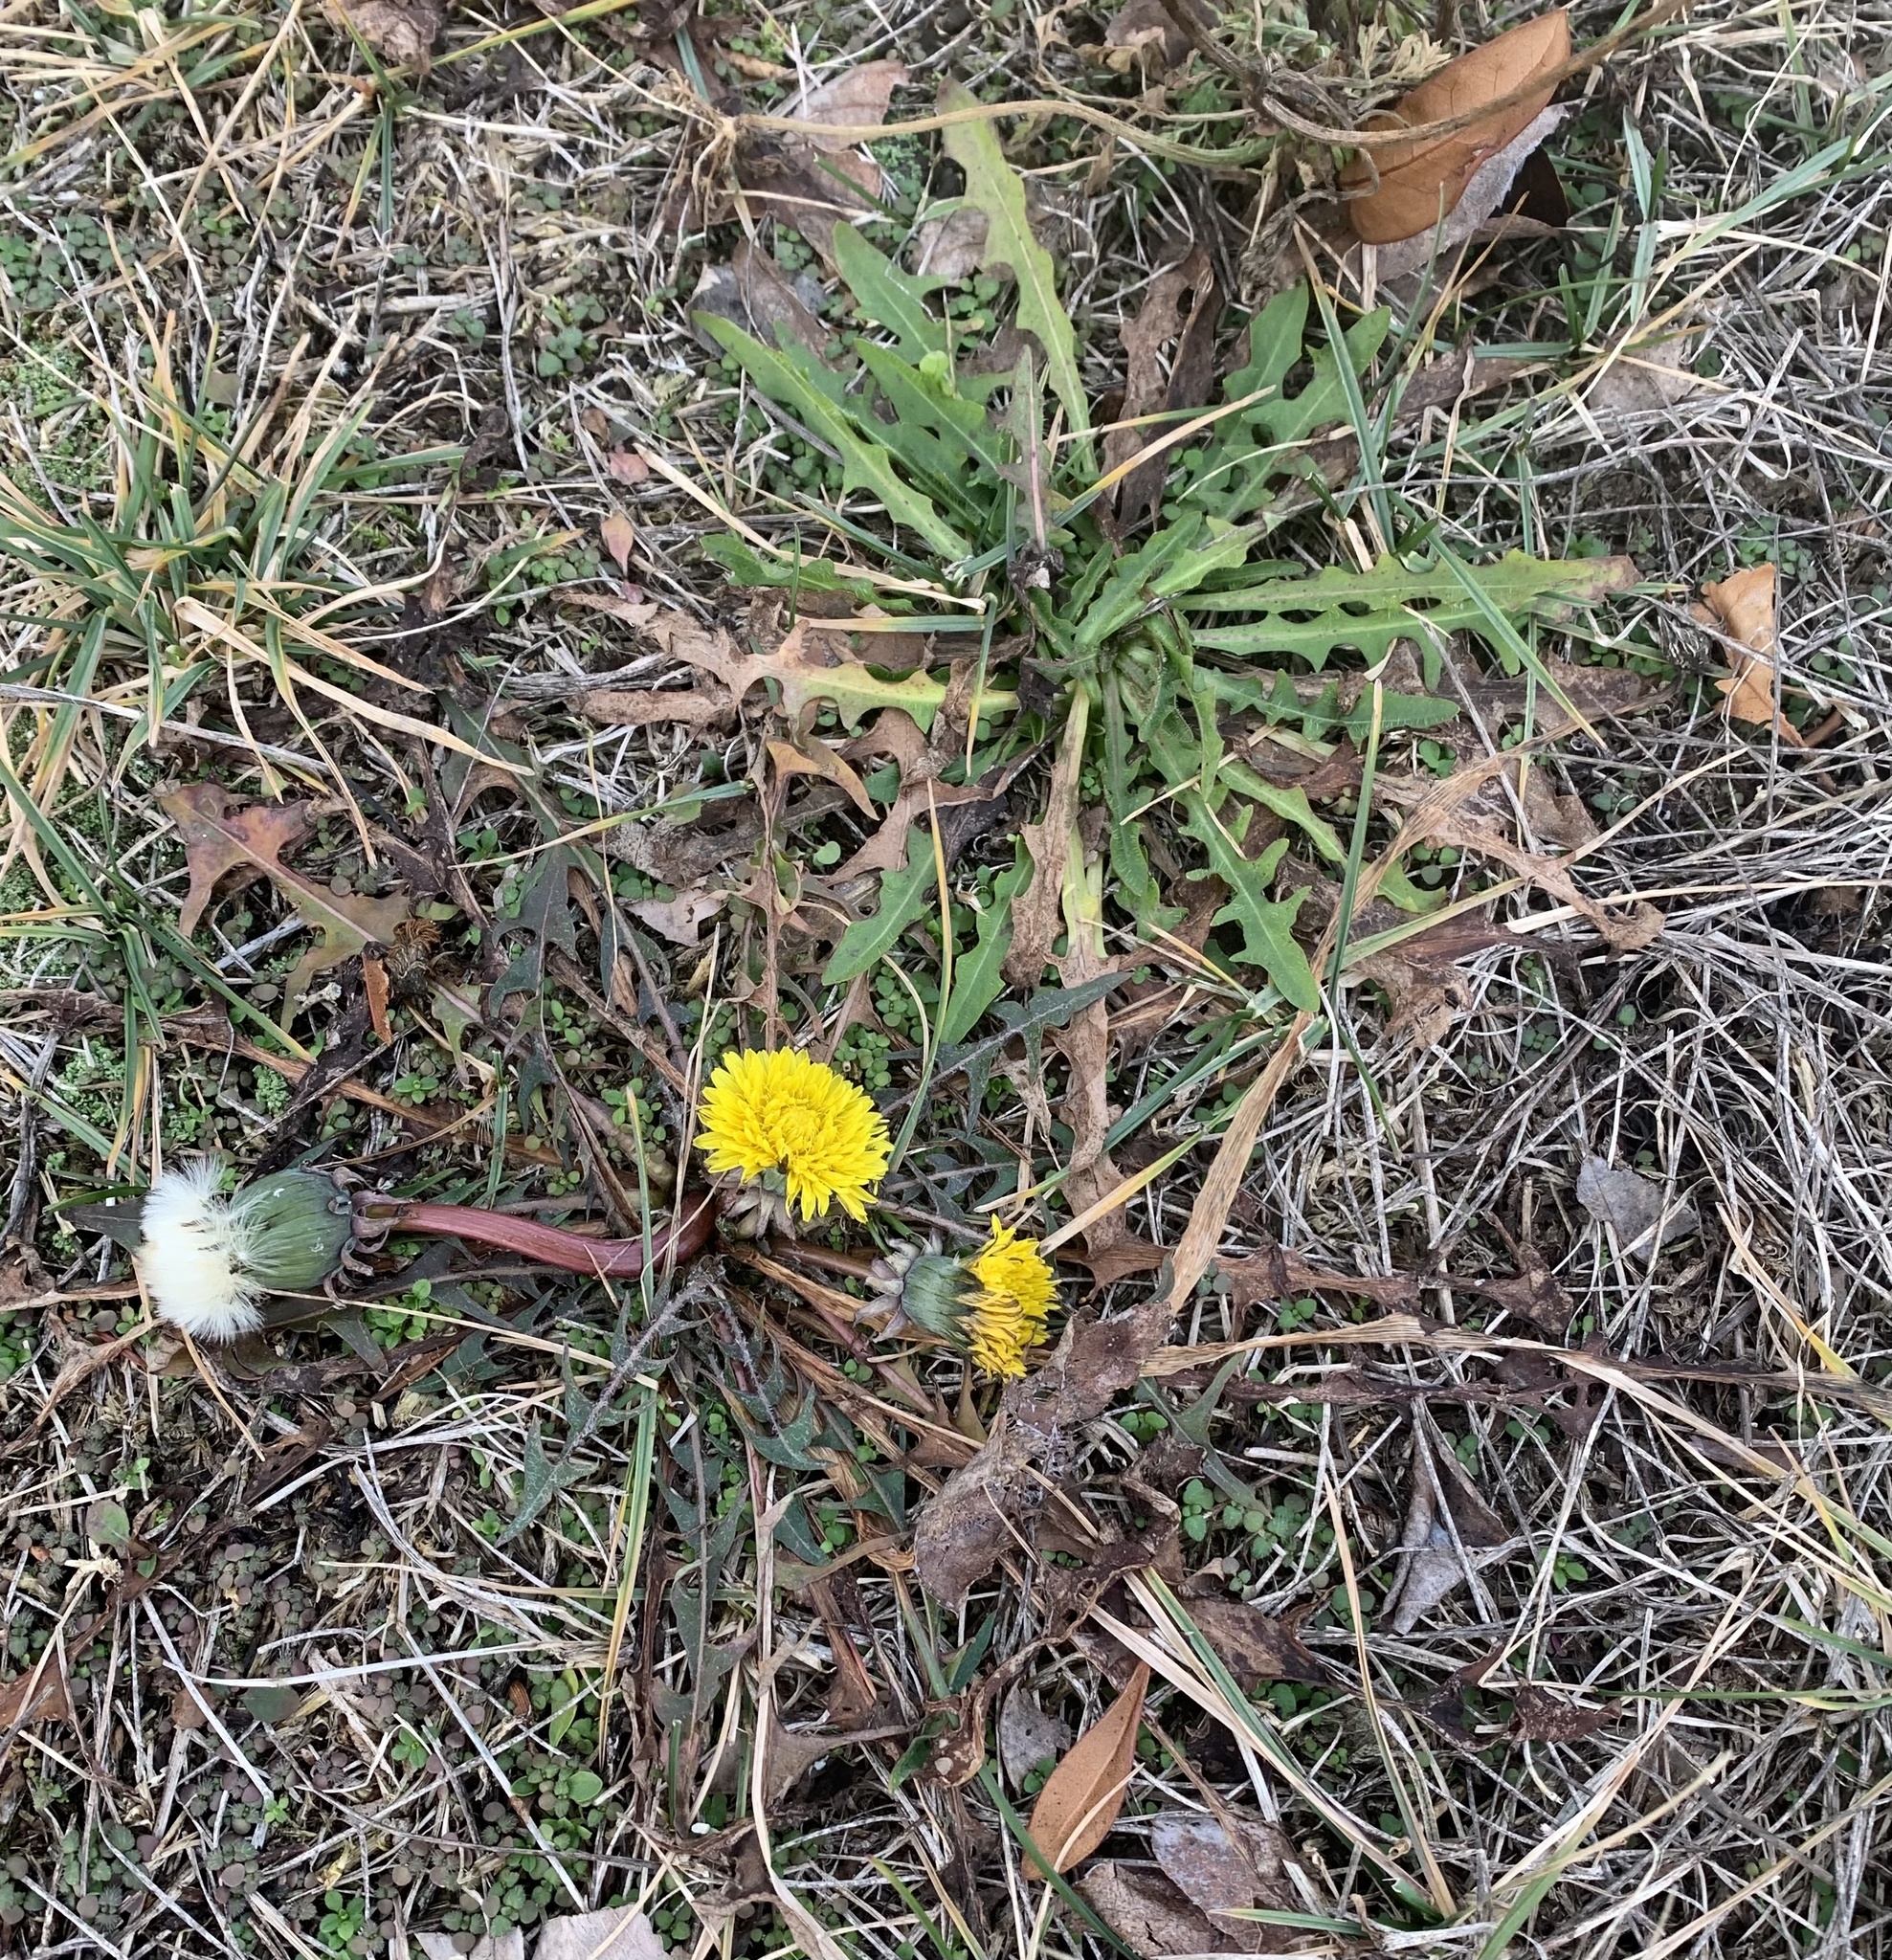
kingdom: Plantae
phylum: Tracheophyta
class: Magnoliopsida
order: Asterales
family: Asteraceae
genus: Taraxacum
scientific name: Taraxacum officinale
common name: Common dandelion
